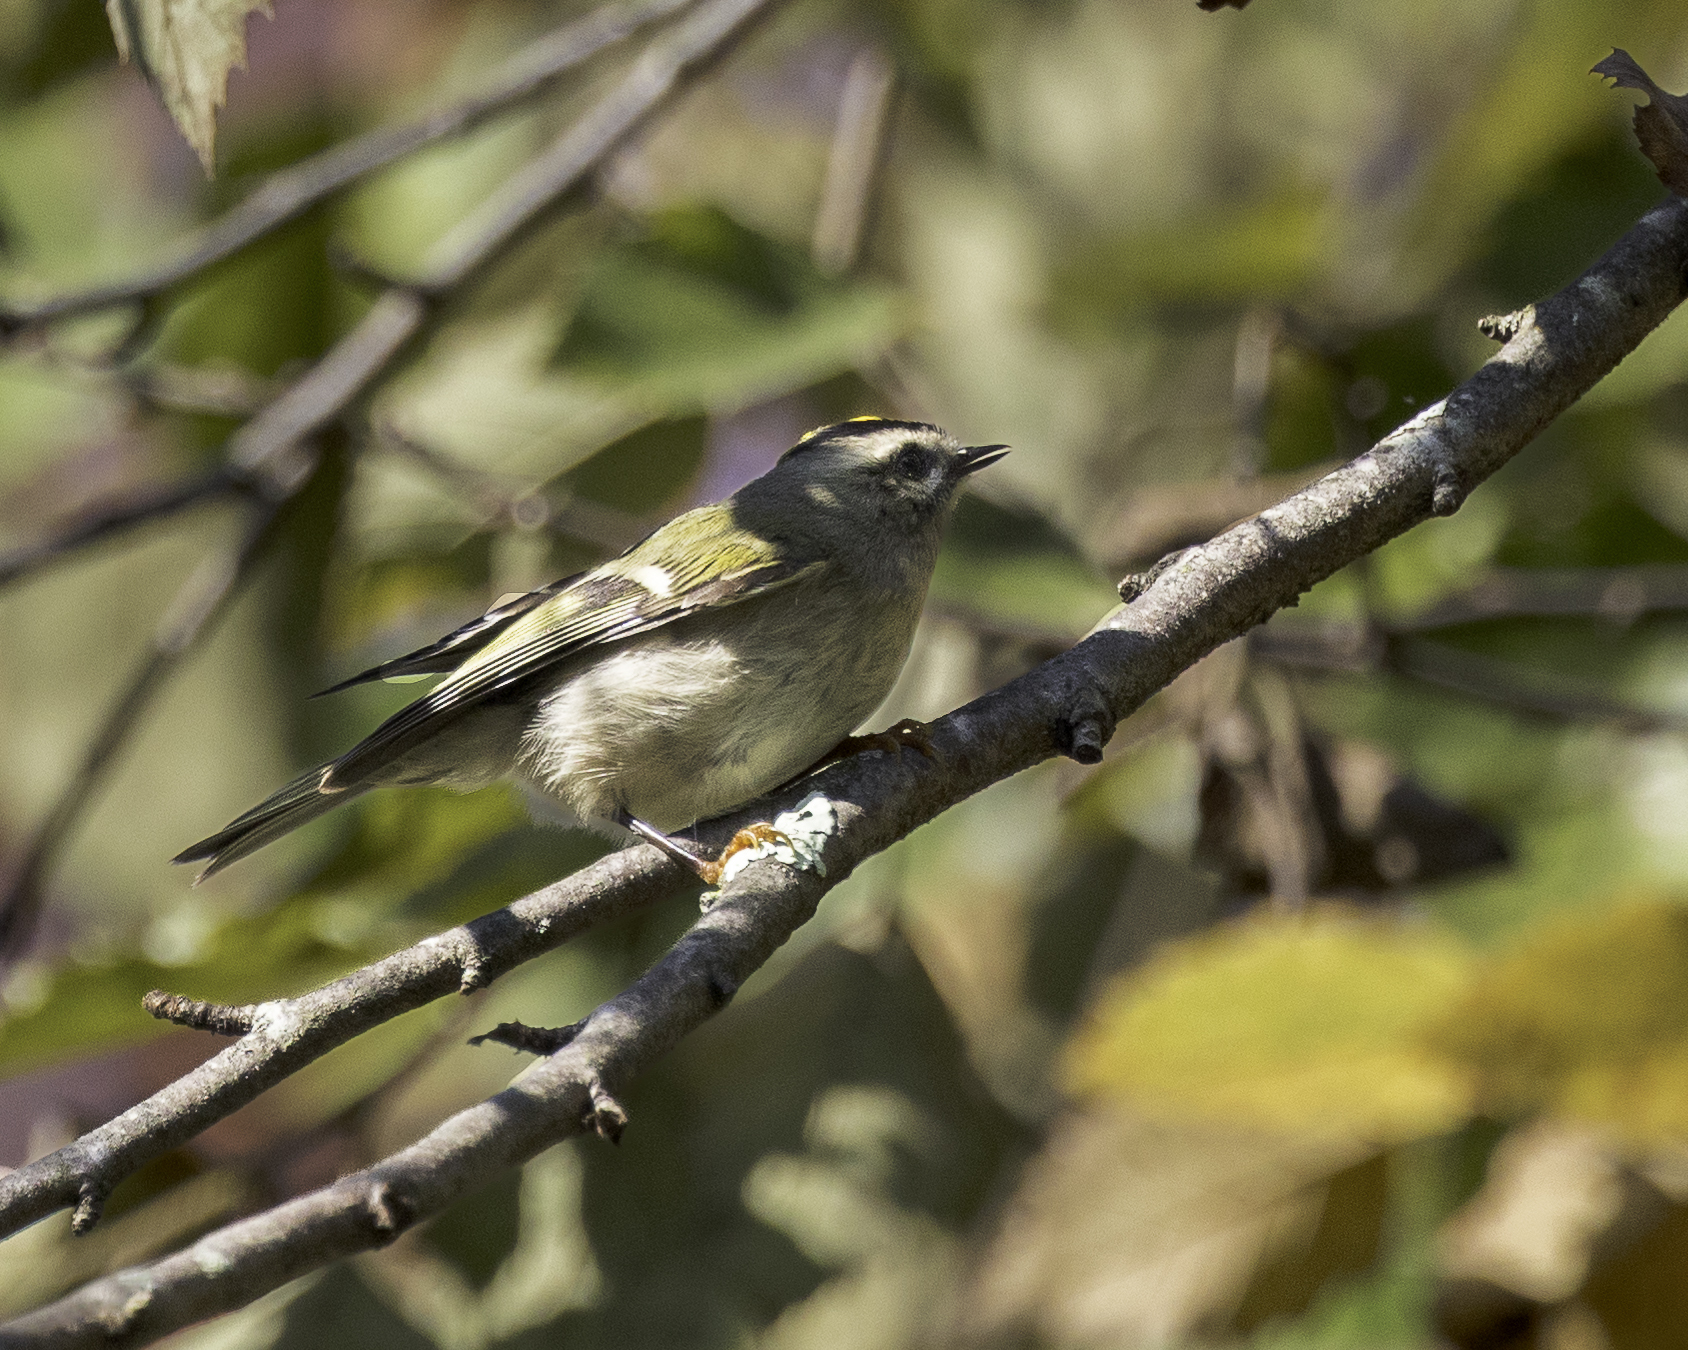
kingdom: Animalia
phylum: Chordata
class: Aves
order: Passeriformes
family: Regulidae
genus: Regulus
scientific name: Regulus satrapa
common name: Golden-crowned kinglet
